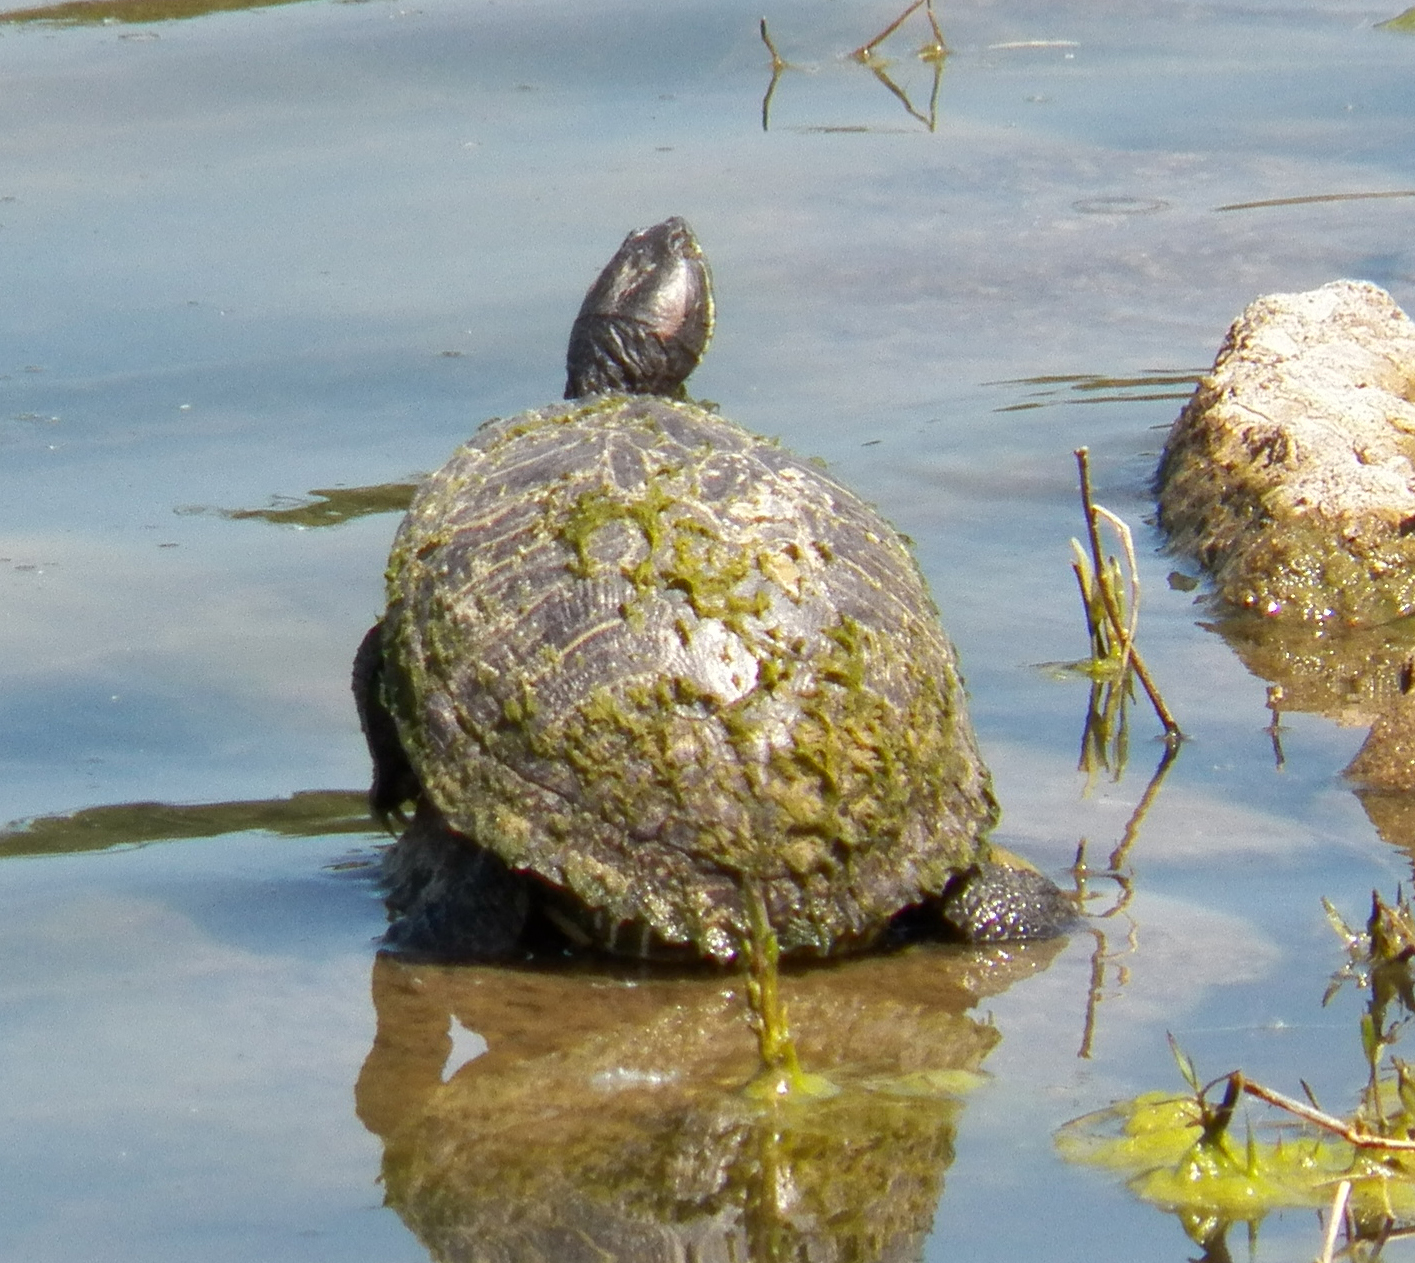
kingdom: Animalia
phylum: Chordata
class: Testudines
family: Emydidae
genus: Trachemys
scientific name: Trachemys scripta
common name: Slider
